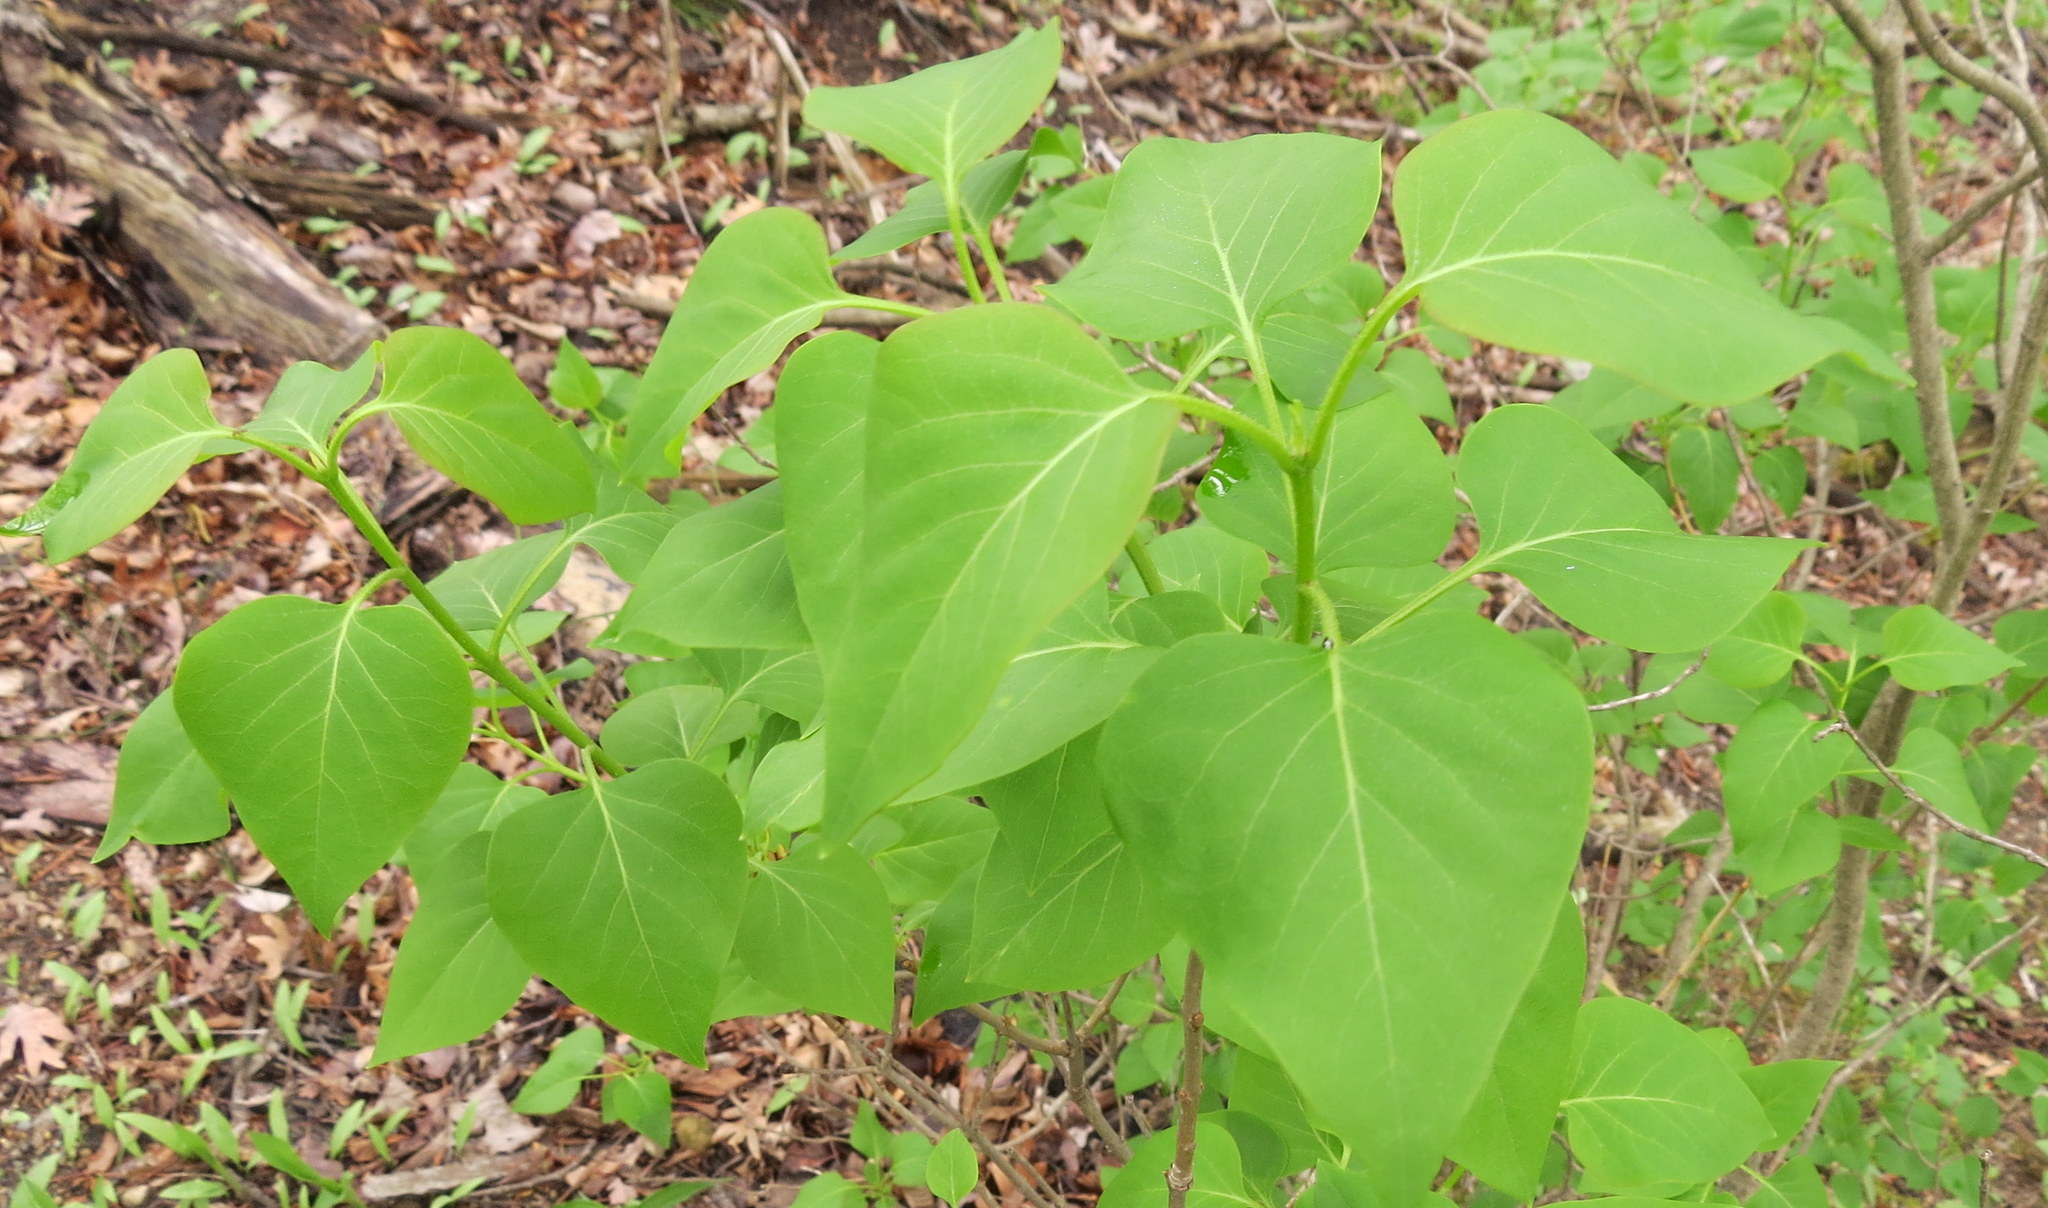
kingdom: Plantae
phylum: Tracheophyta
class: Magnoliopsida
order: Lamiales
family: Oleaceae
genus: Syringa
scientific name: Syringa vulgaris
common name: Common lilac
